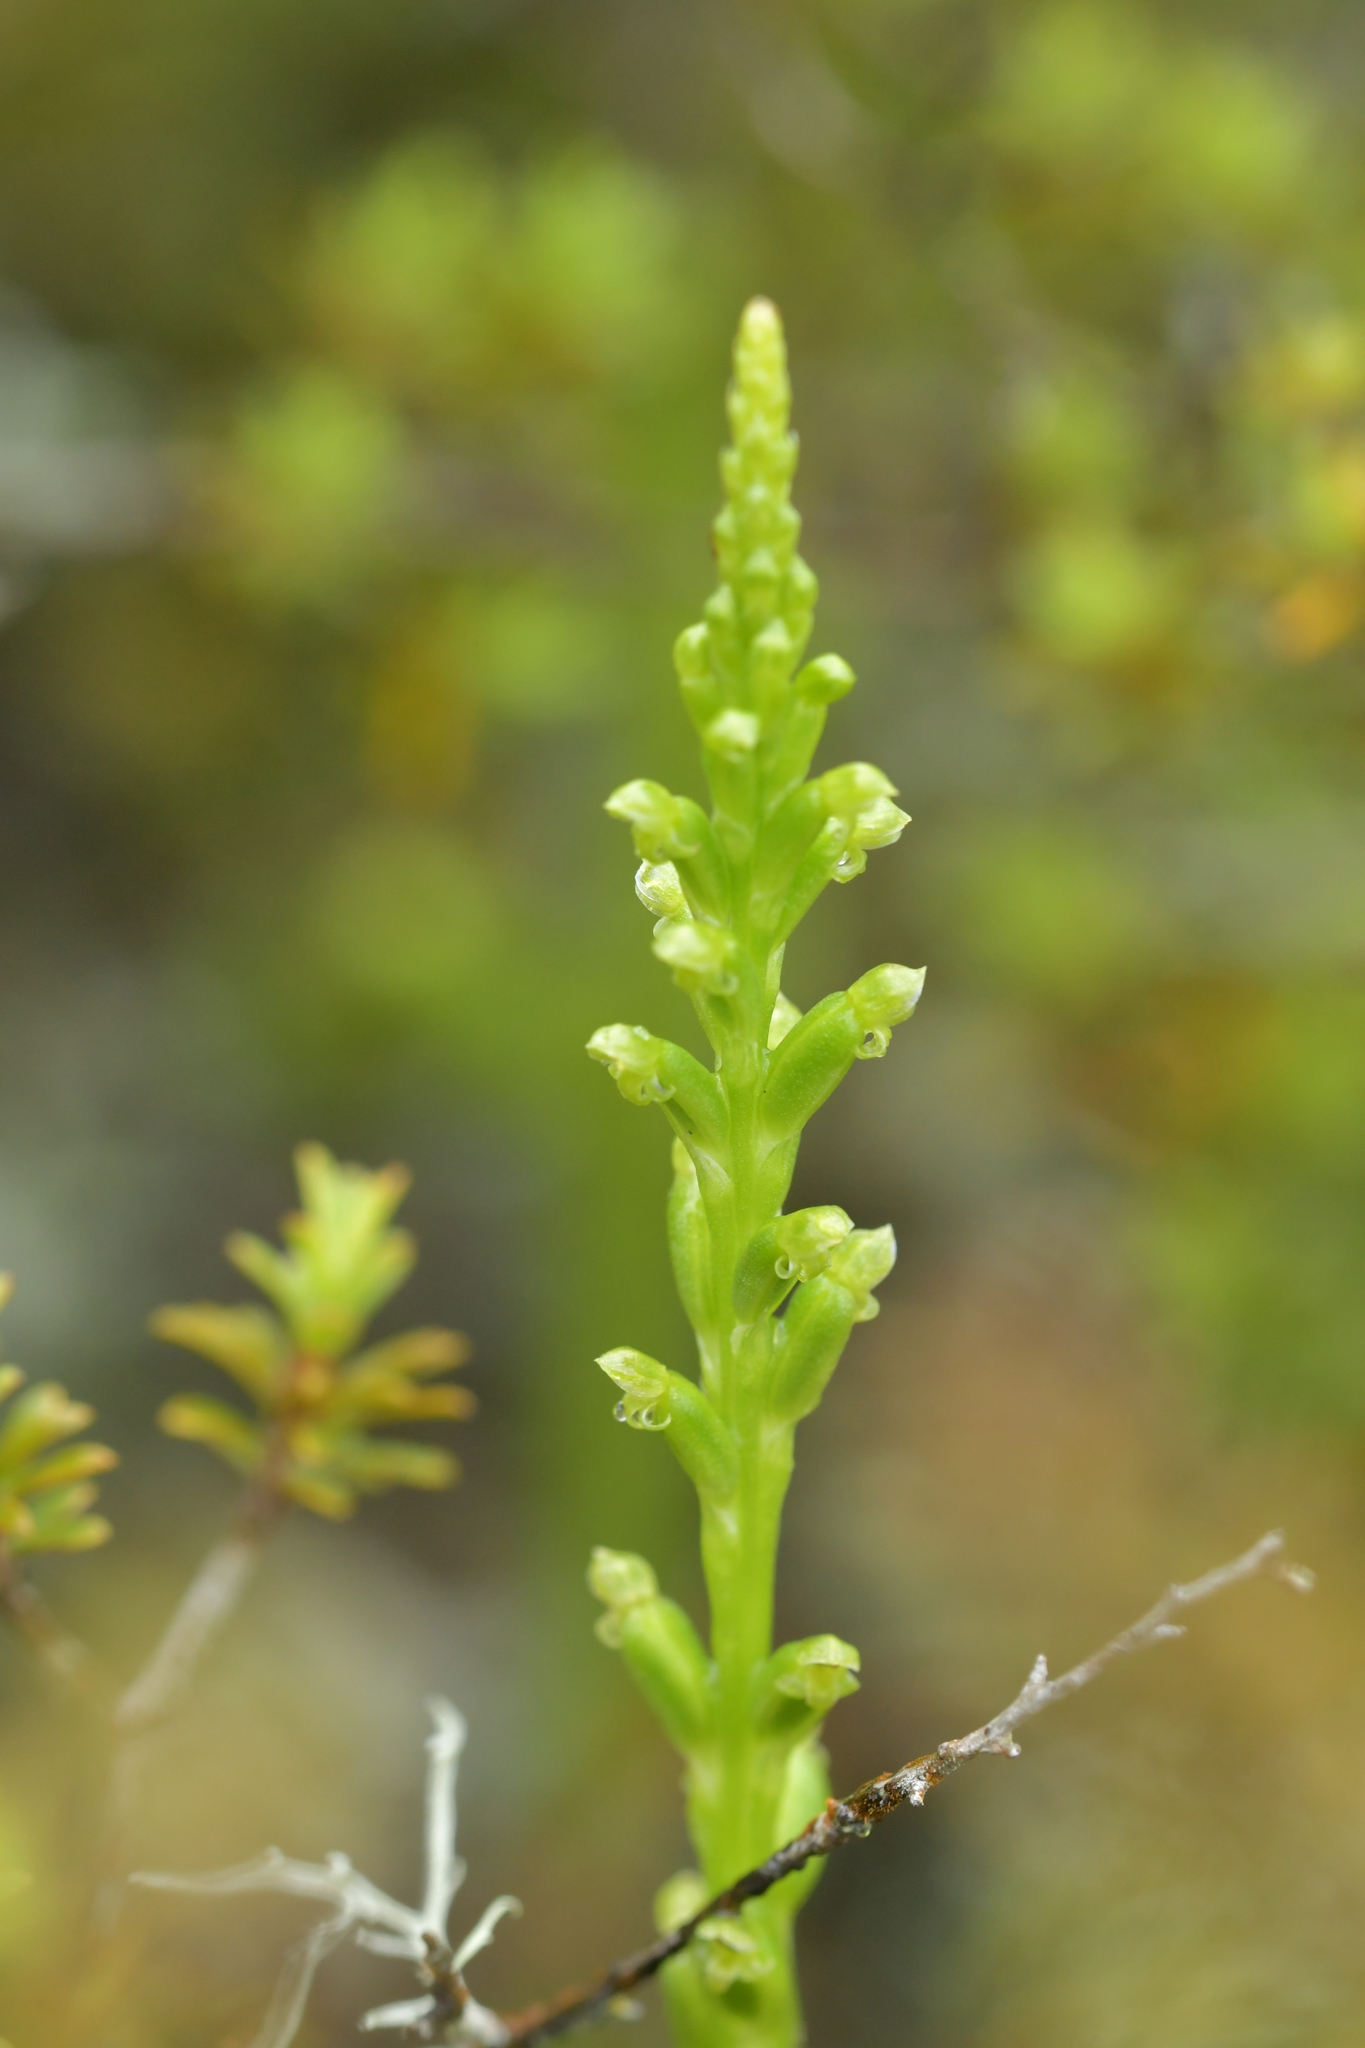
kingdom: Plantae
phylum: Tracheophyta
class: Liliopsida
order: Asparagales
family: Orchidaceae
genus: Microtis
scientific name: Microtis unifolia
